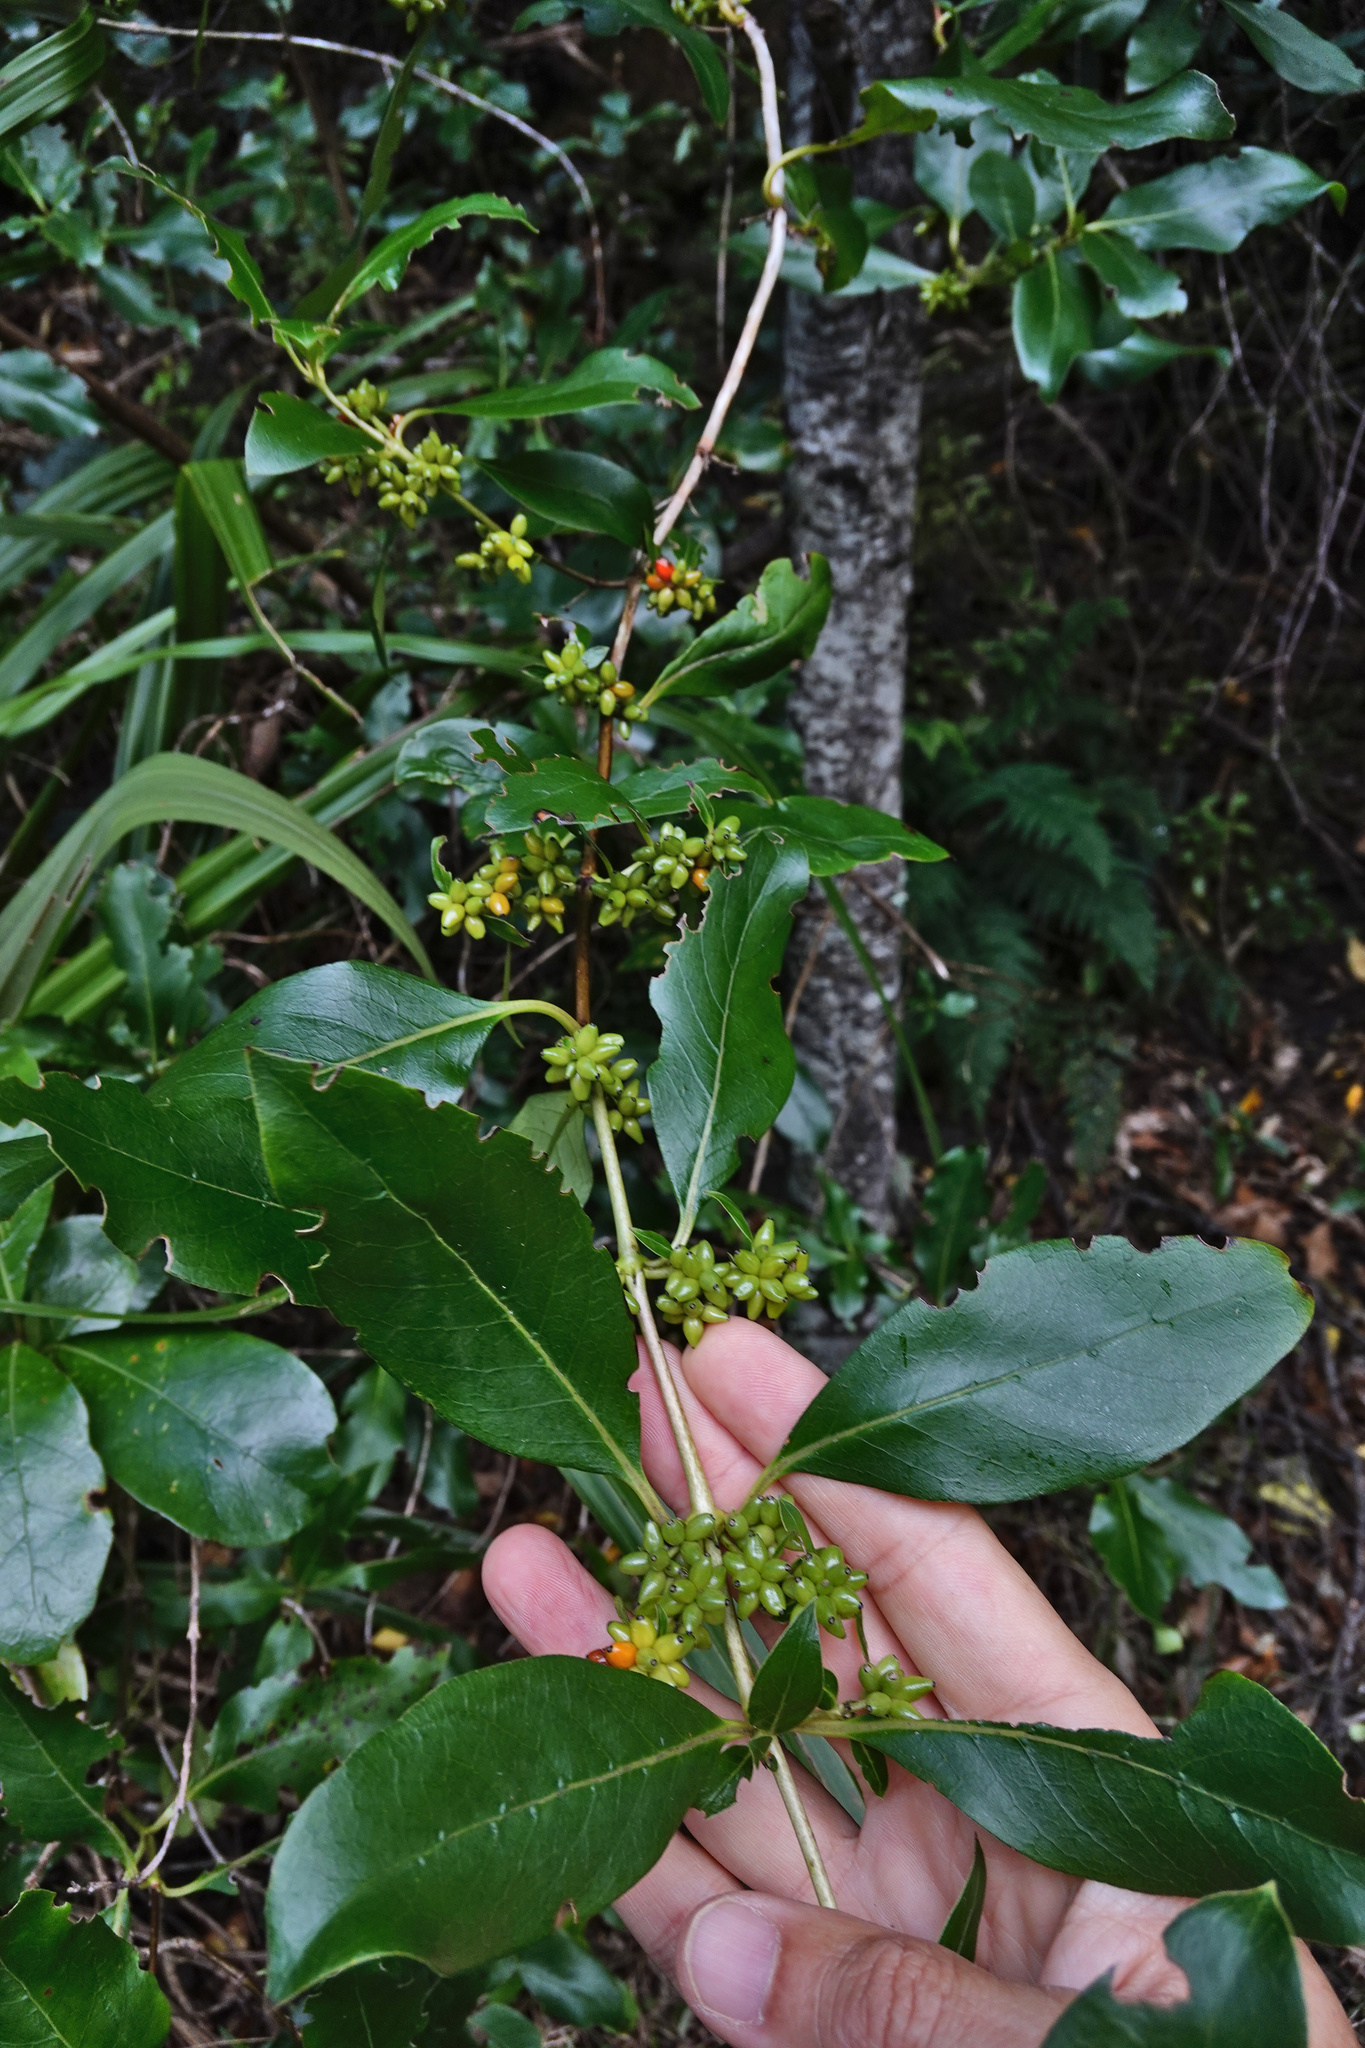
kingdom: Plantae
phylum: Tracheophyta
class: Magnoliopsida
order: Gentianales
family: Rubiaceae
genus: Coprosma
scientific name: Coprosma robusta
